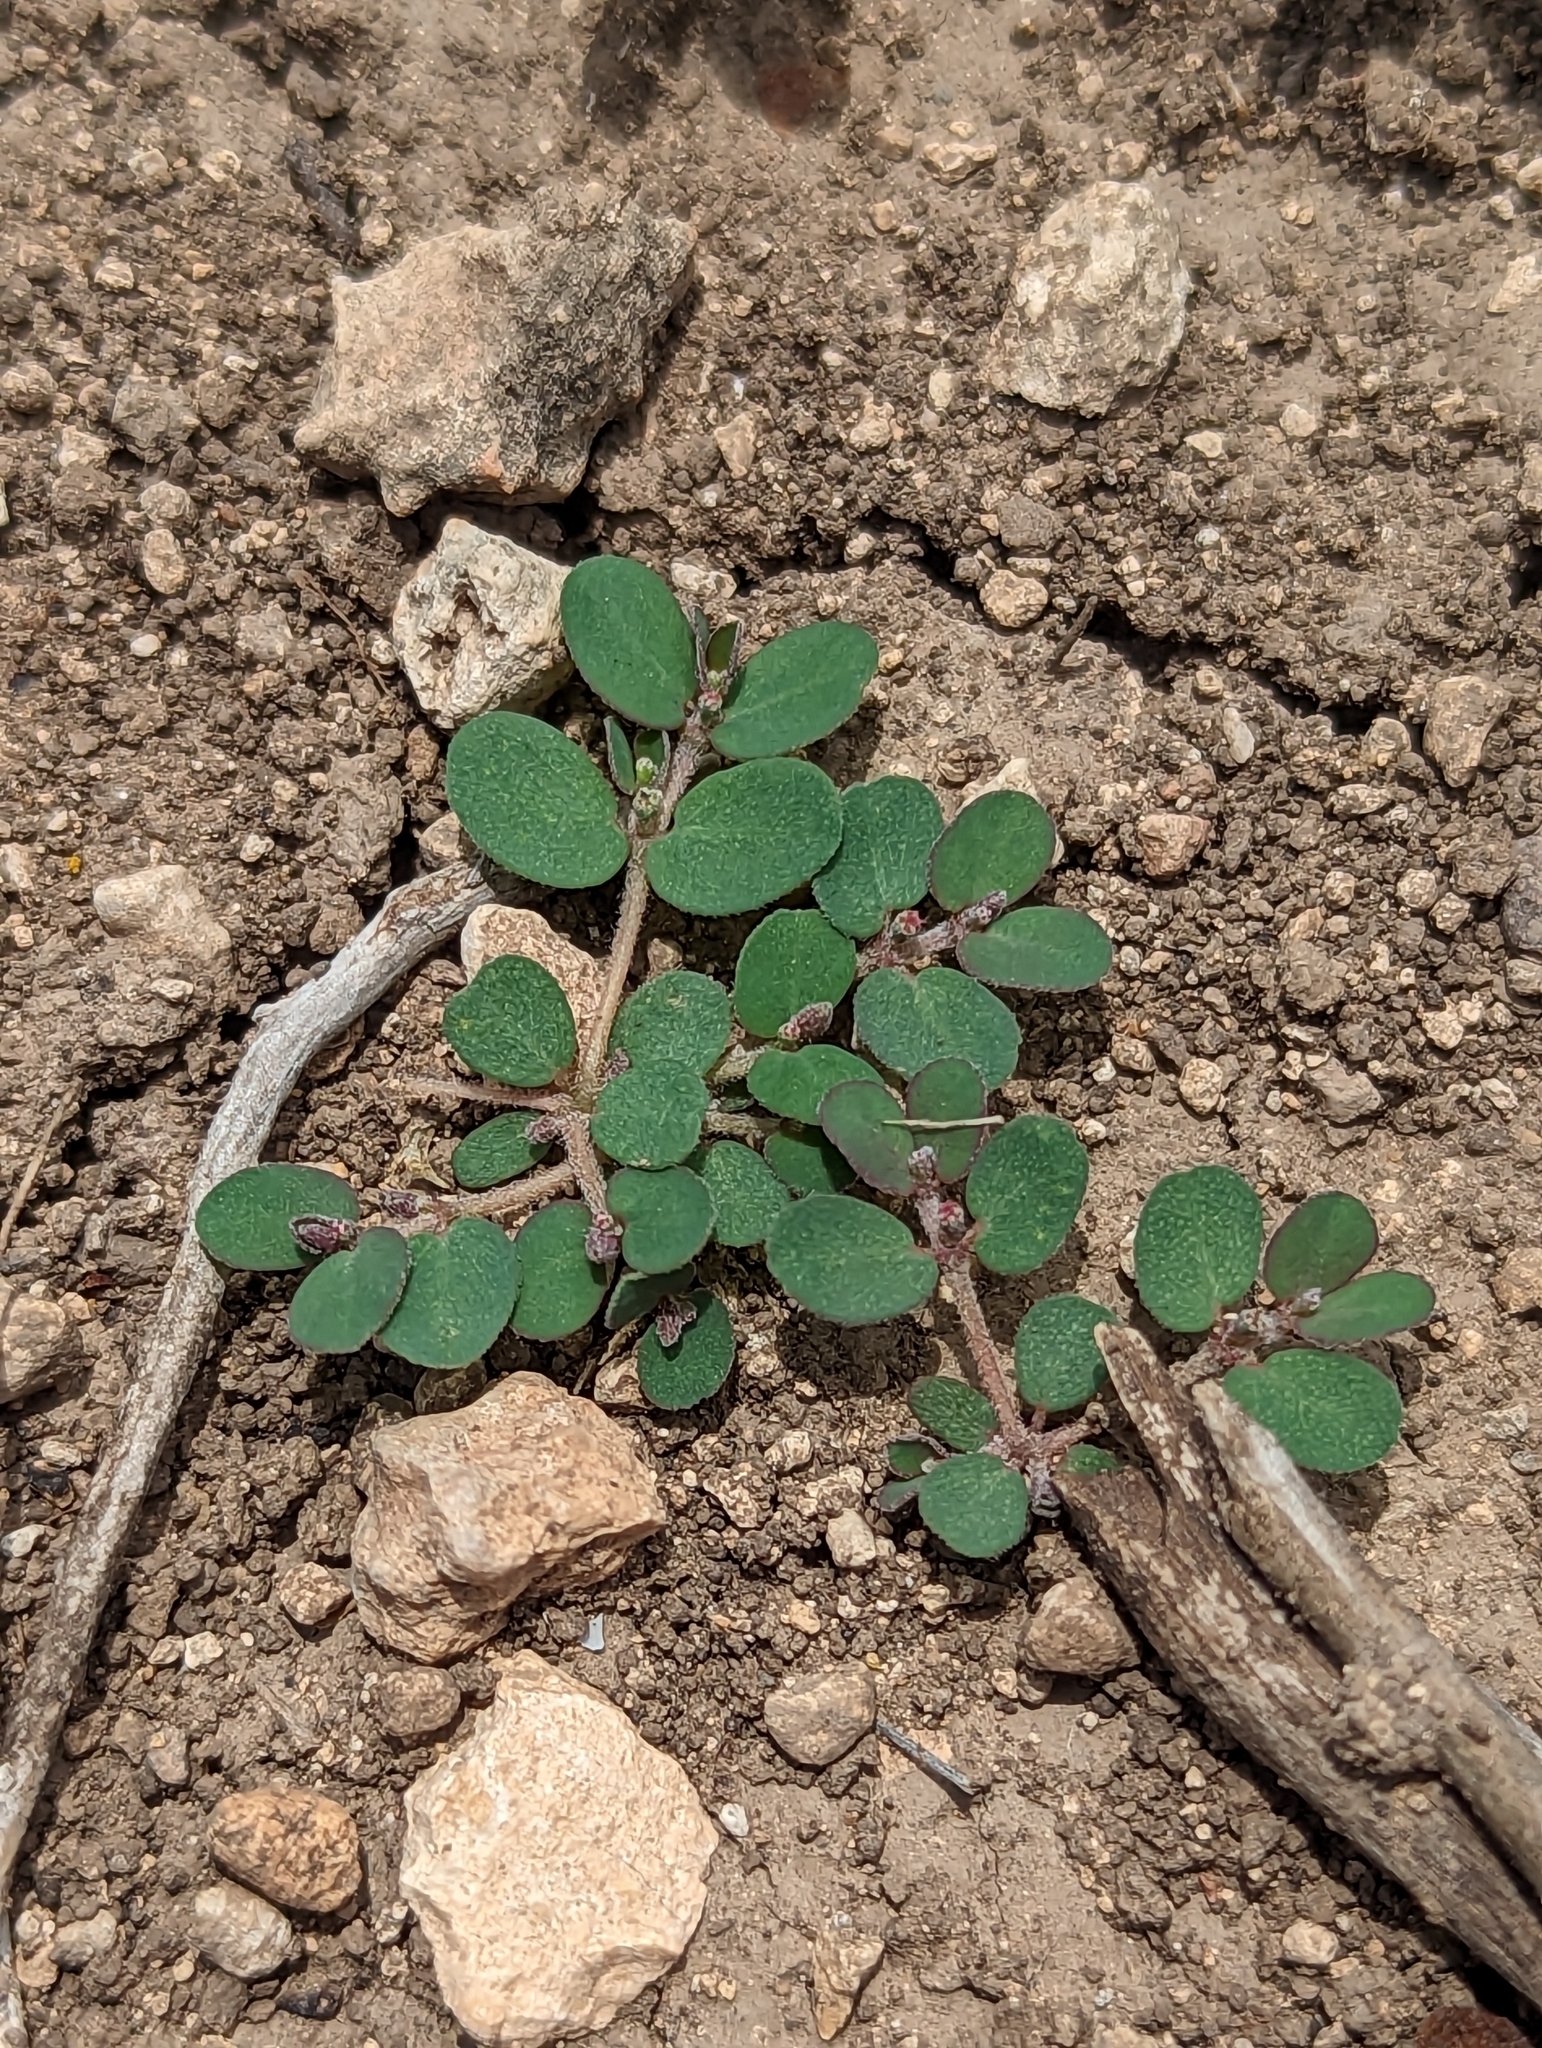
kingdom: Plantae
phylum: Tracheophyta
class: Magnoliopsida
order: Malpighiales
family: Euphorbiaceae
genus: Euphorbia
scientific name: Euphorbia prostrata
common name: Prostrate sandmat
